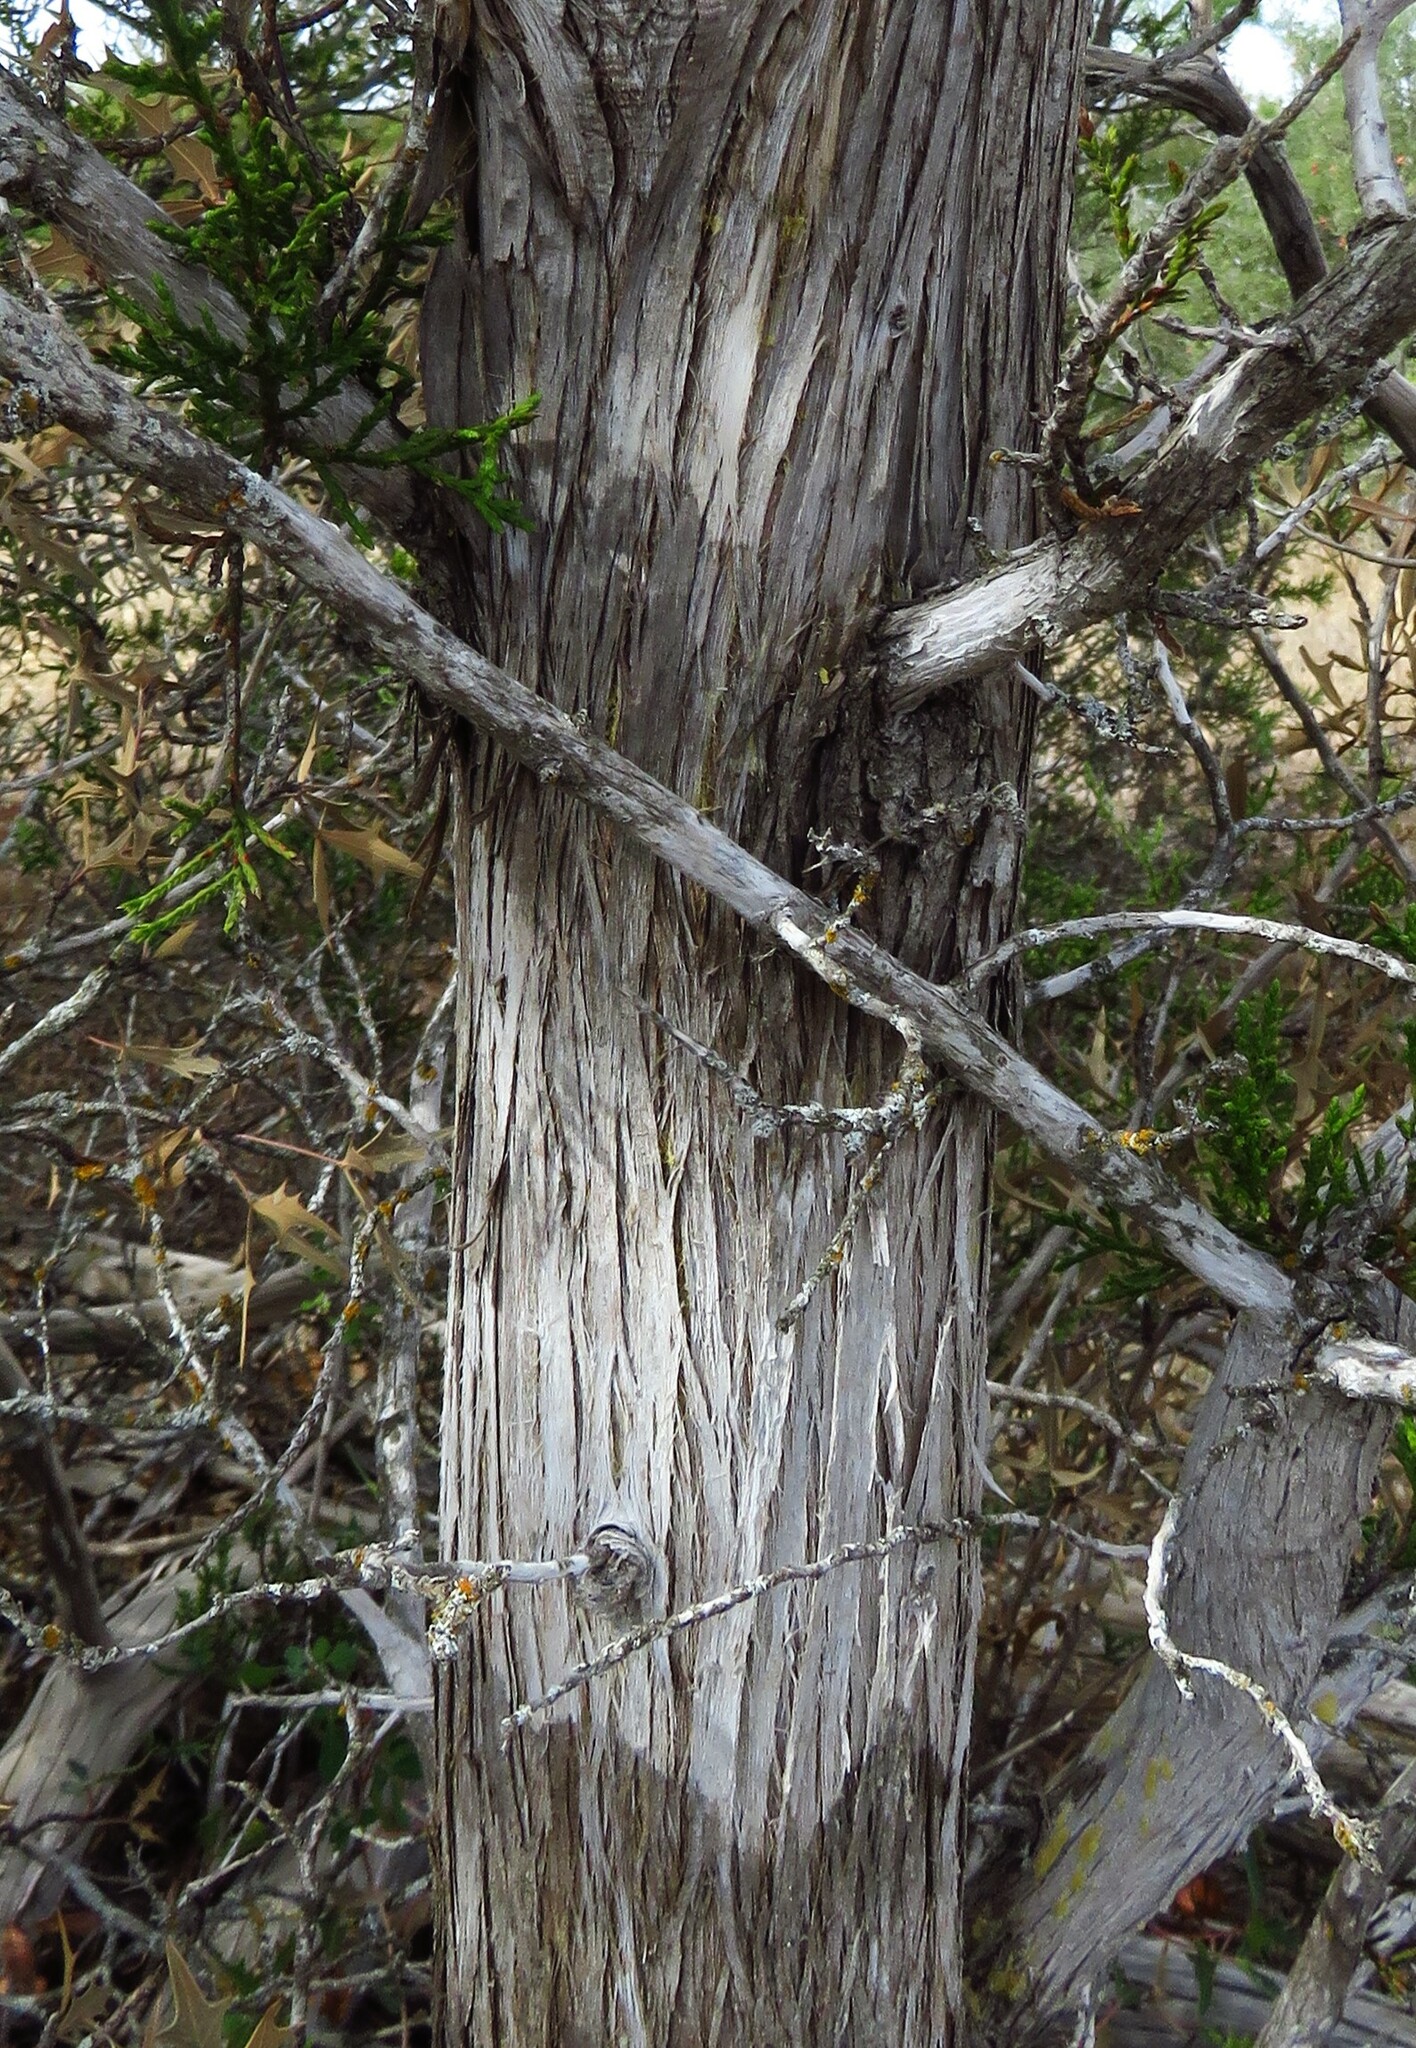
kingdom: Fungi
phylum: Ascomycota
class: Lecanoromycetes
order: Ostropales
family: Stictidaceae
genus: Robergea
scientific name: Robergea
